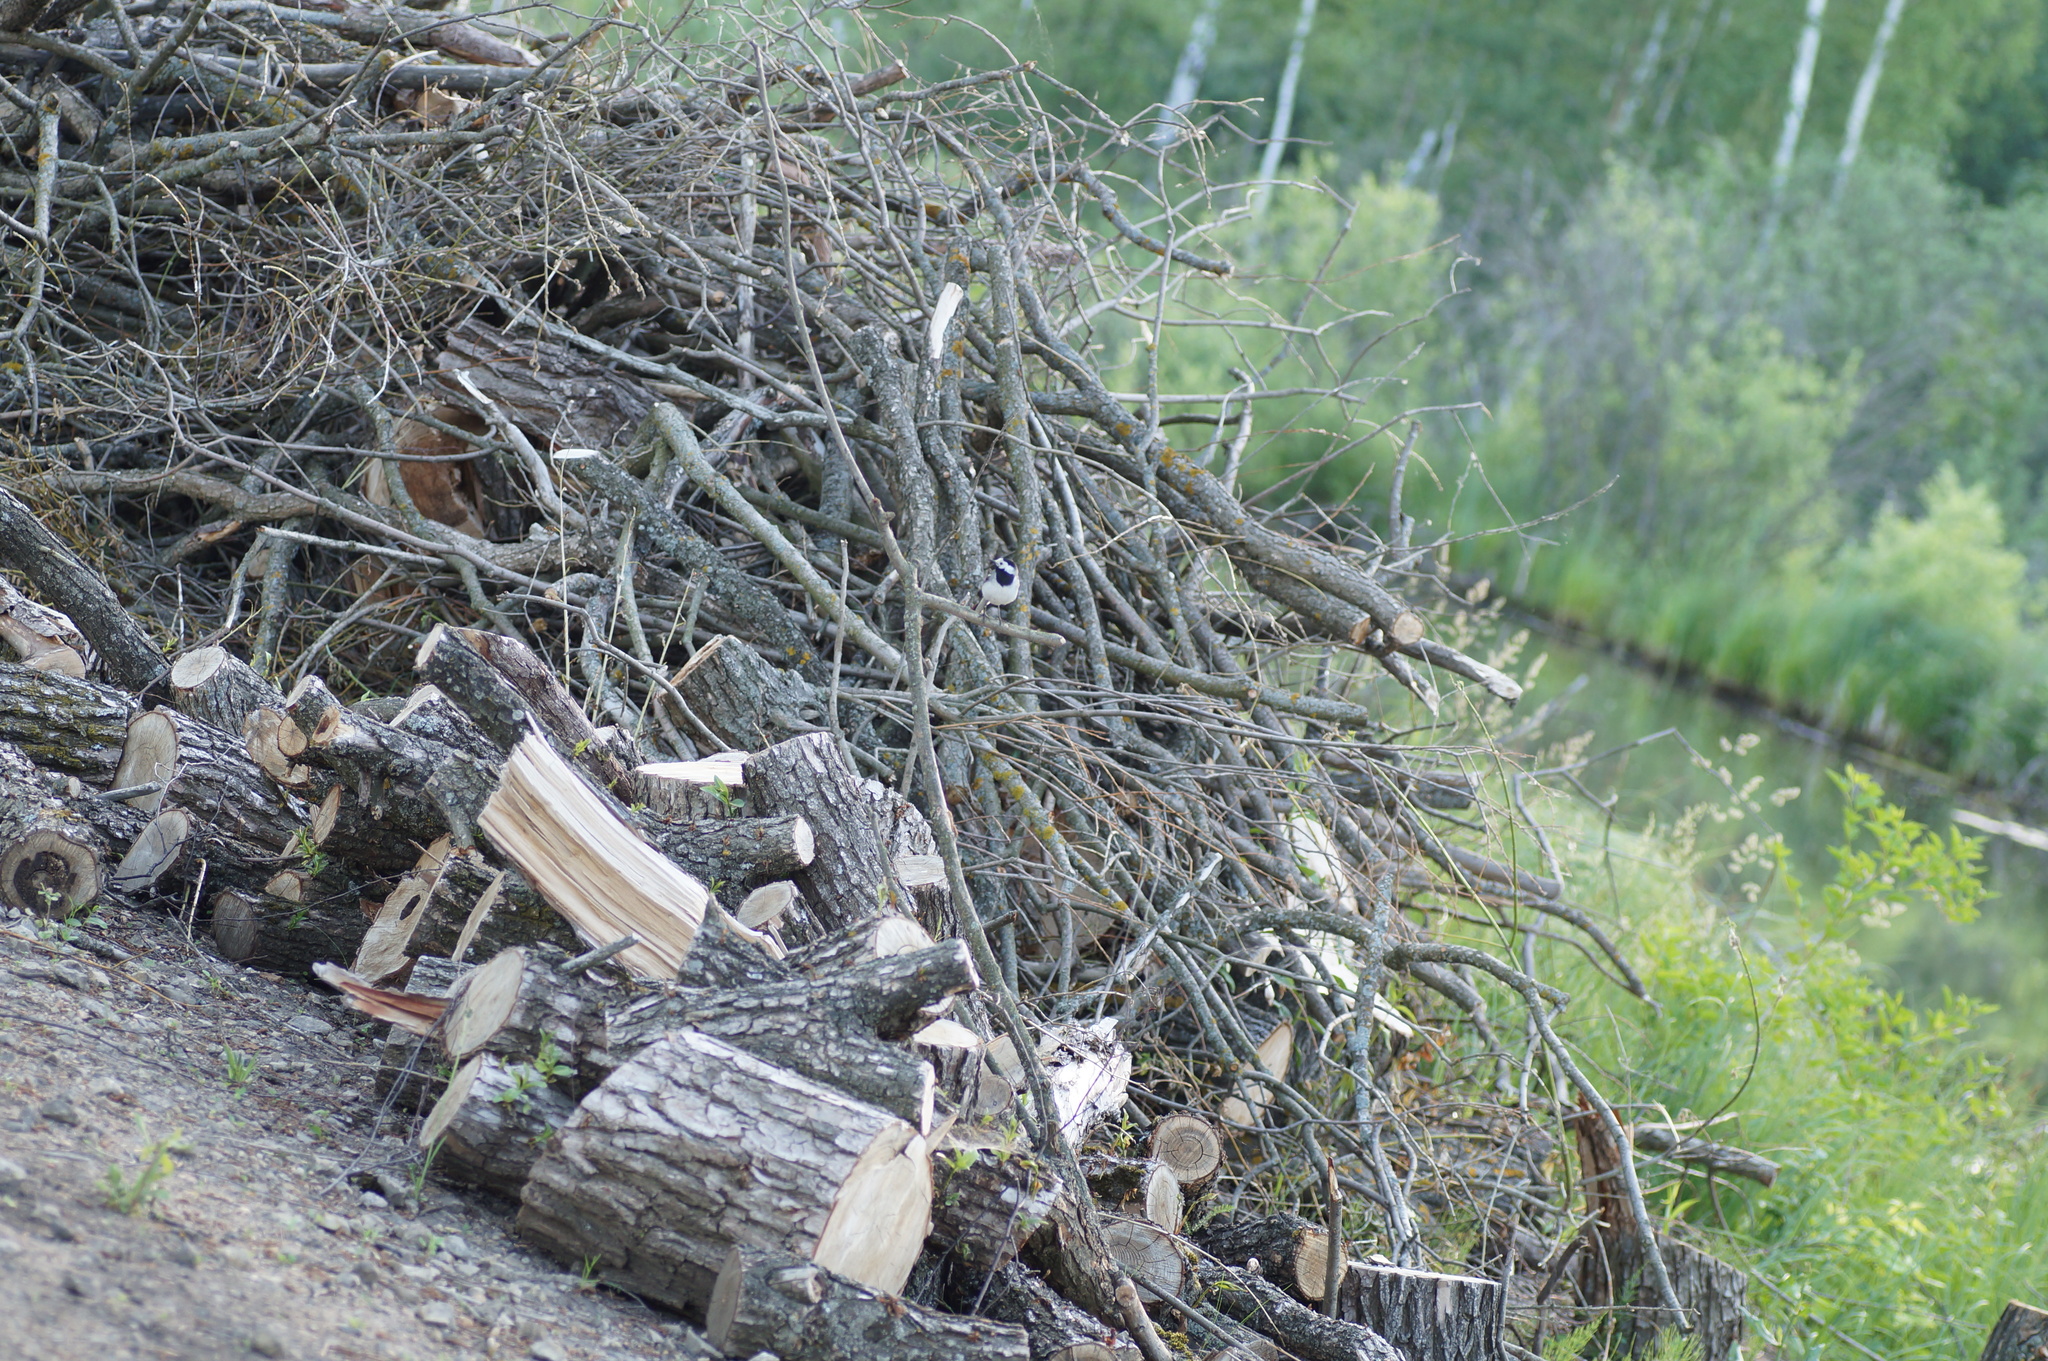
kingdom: Animalia
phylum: Chordata
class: Aves
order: Passeriformes
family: Motacillidae
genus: Motacilla
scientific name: Motacilla alba
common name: White wagtail
